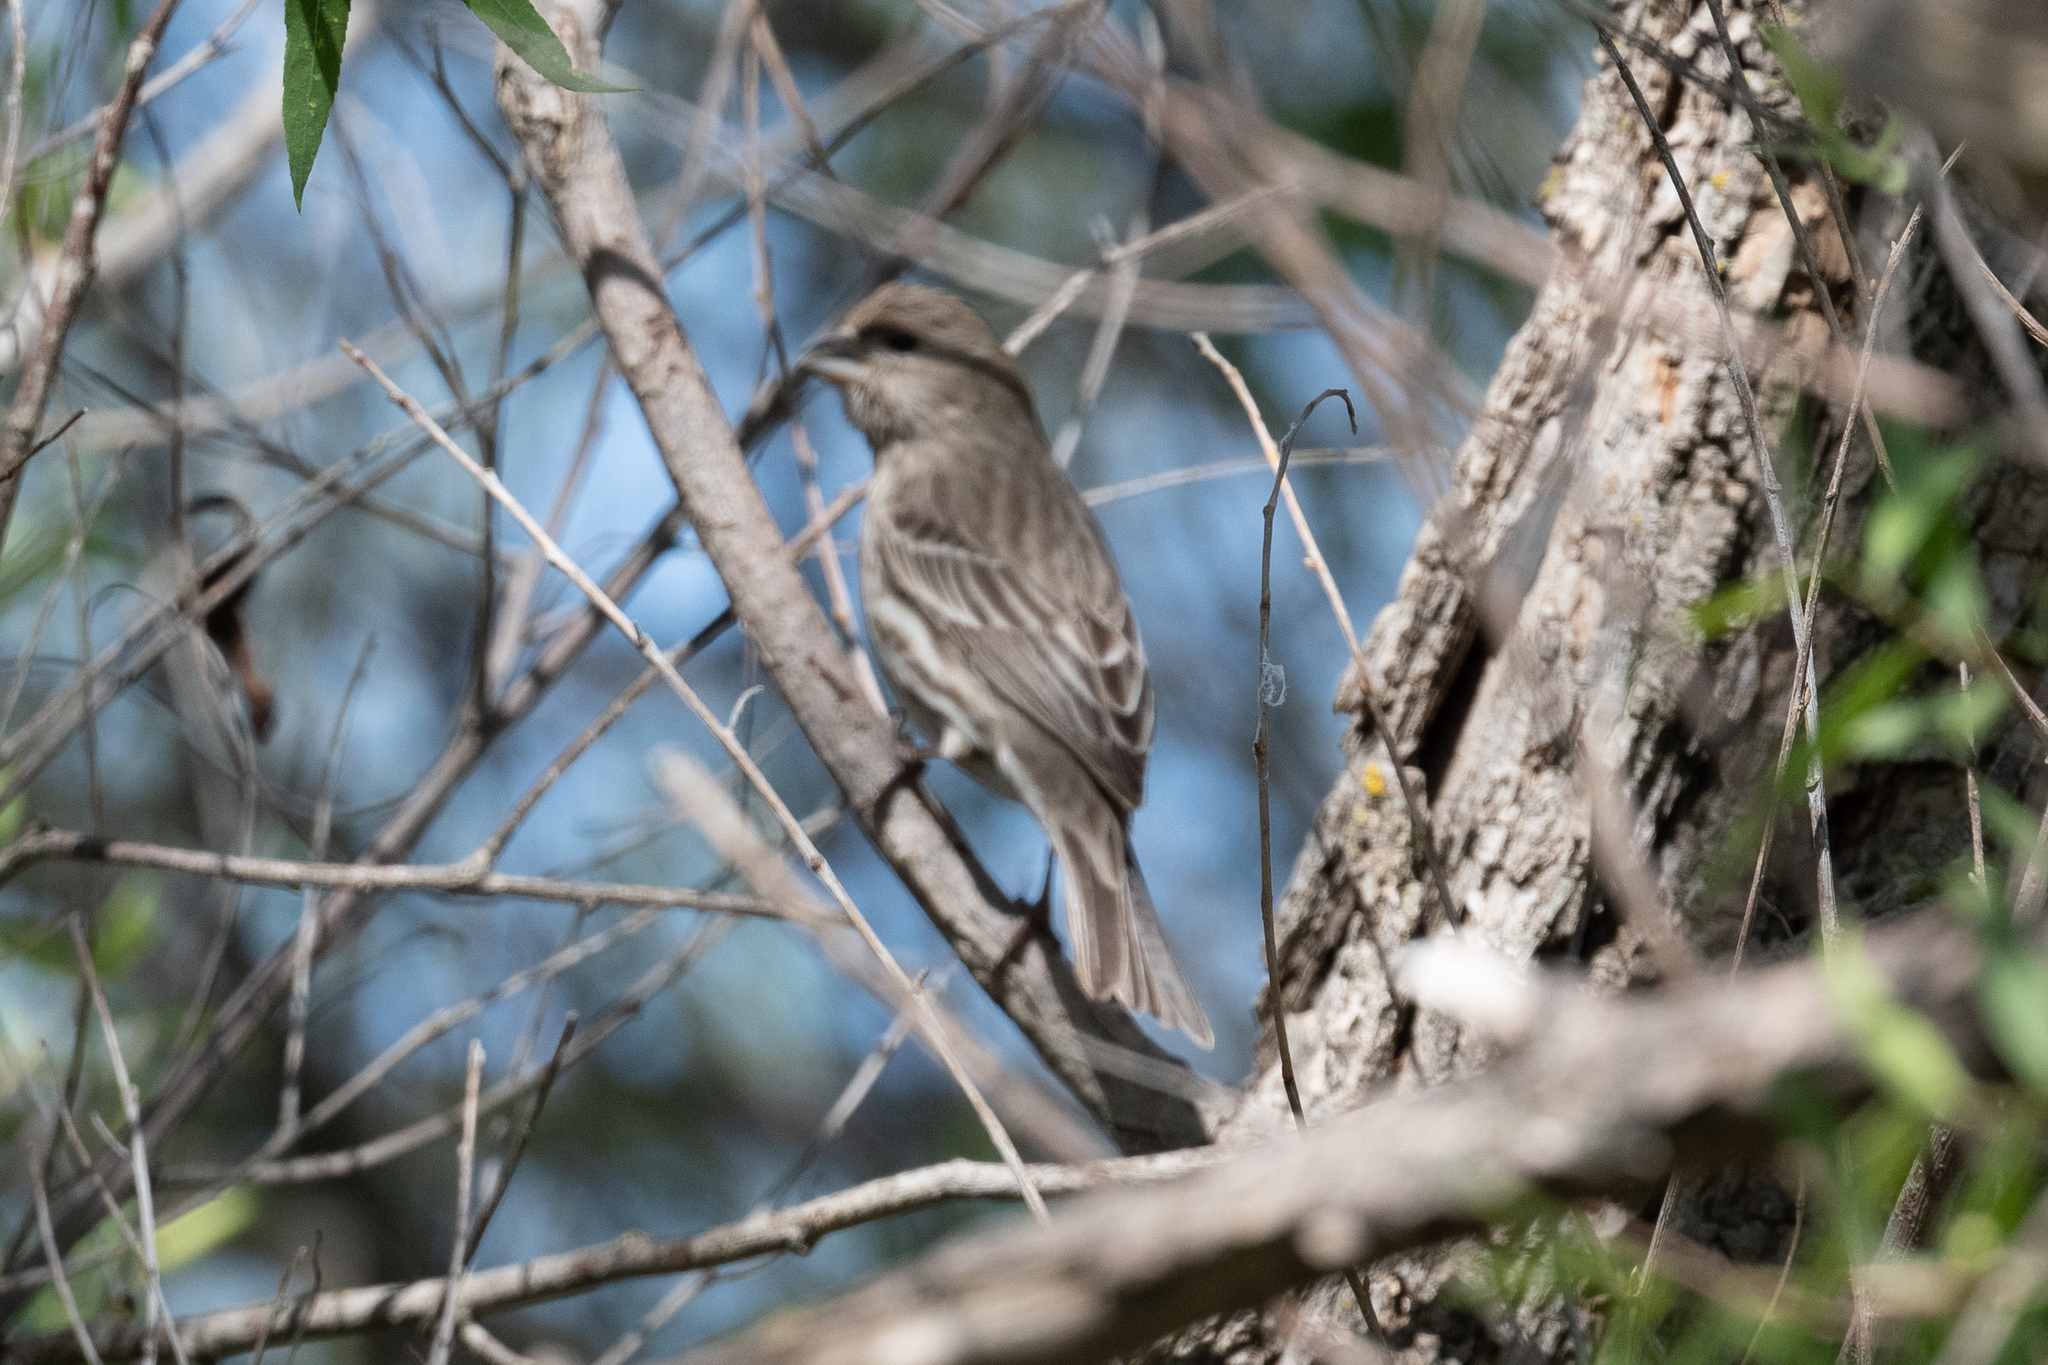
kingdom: Animalia
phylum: Chordata
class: Aves
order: Passeriformes
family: Fringillidae
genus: Haemorhous
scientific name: Haemorhous mexicanus
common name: House finch
